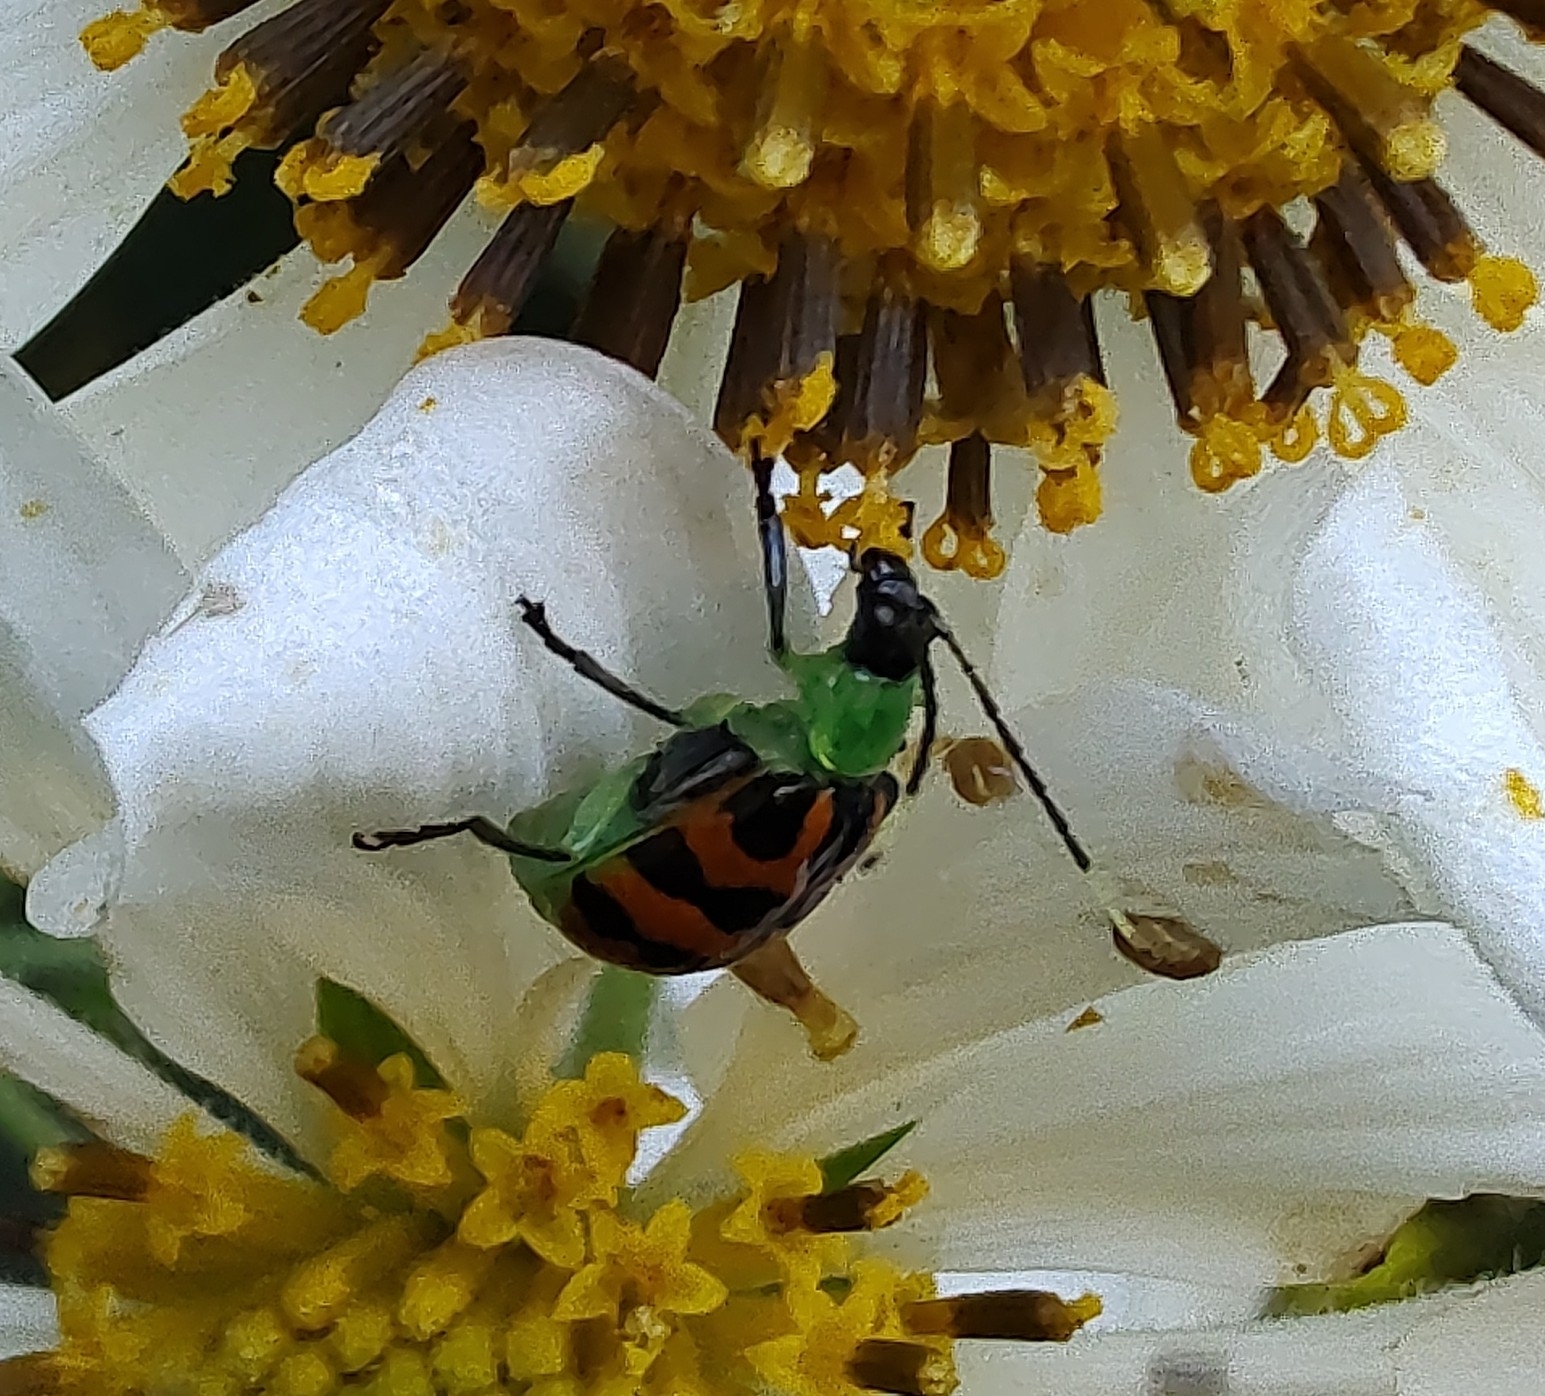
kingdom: Animalia
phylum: Arthropoda
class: Insecta
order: Coleoptera
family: Chrysomelidae
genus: Diabrotica
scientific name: Diabrotica limitata
